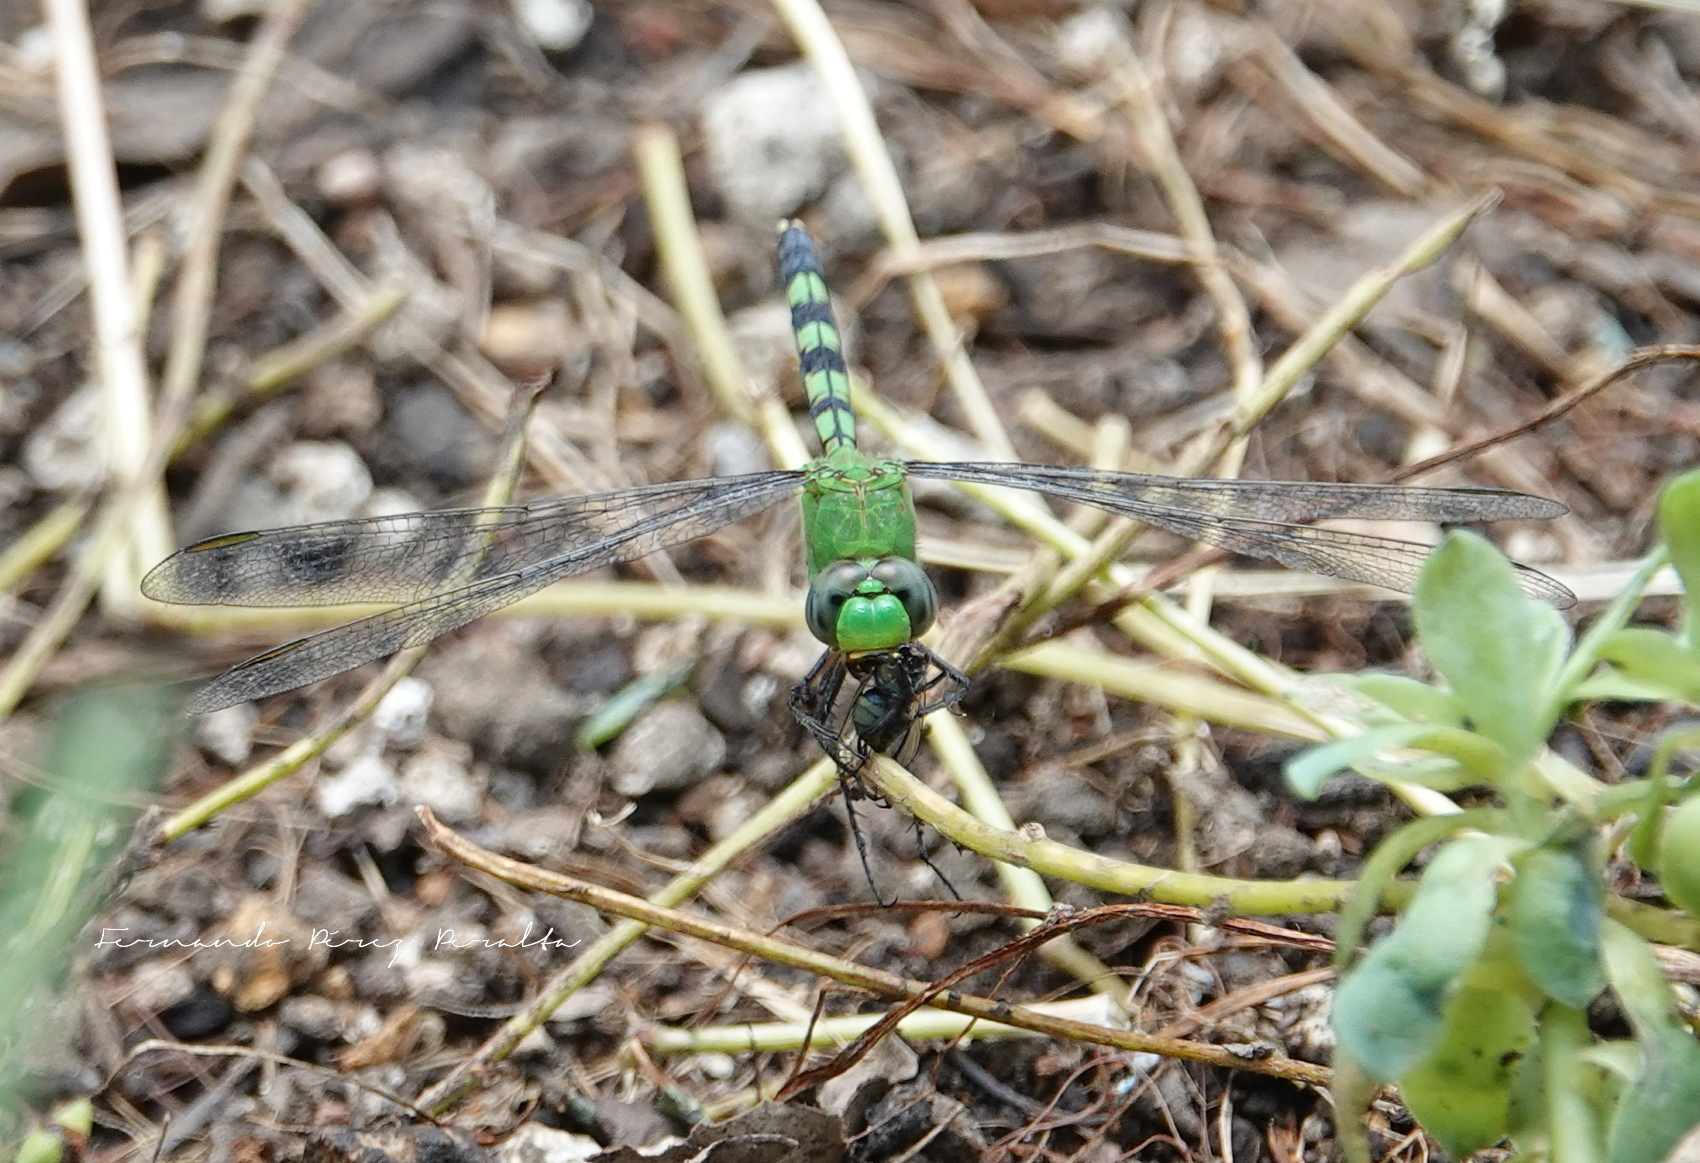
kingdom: Animalia
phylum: Arthropoda
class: Insecta
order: Odonata
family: Libellulidae
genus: Erythemis
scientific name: Erythemis vesiculosa
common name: Great pondhawk
